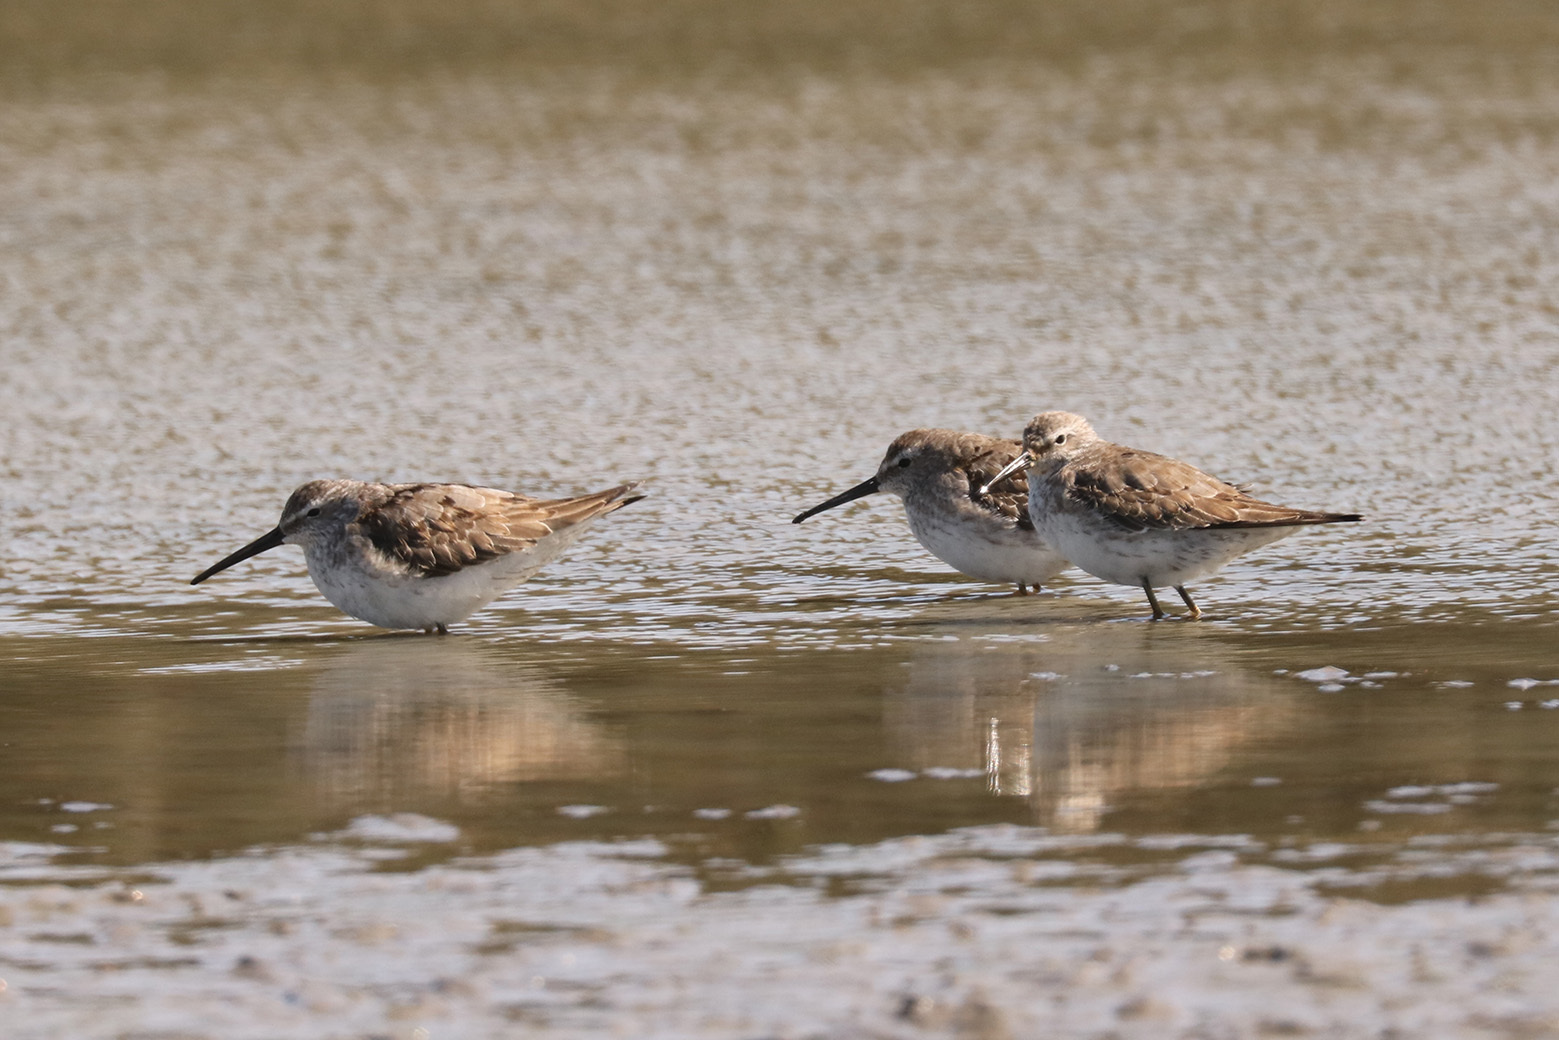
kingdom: Animalia
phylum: Chordata
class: Aves
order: Charadriiformes
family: Scolopacidae
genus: Calidris
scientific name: Calidris himantopus
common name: Stilt sandpiper
